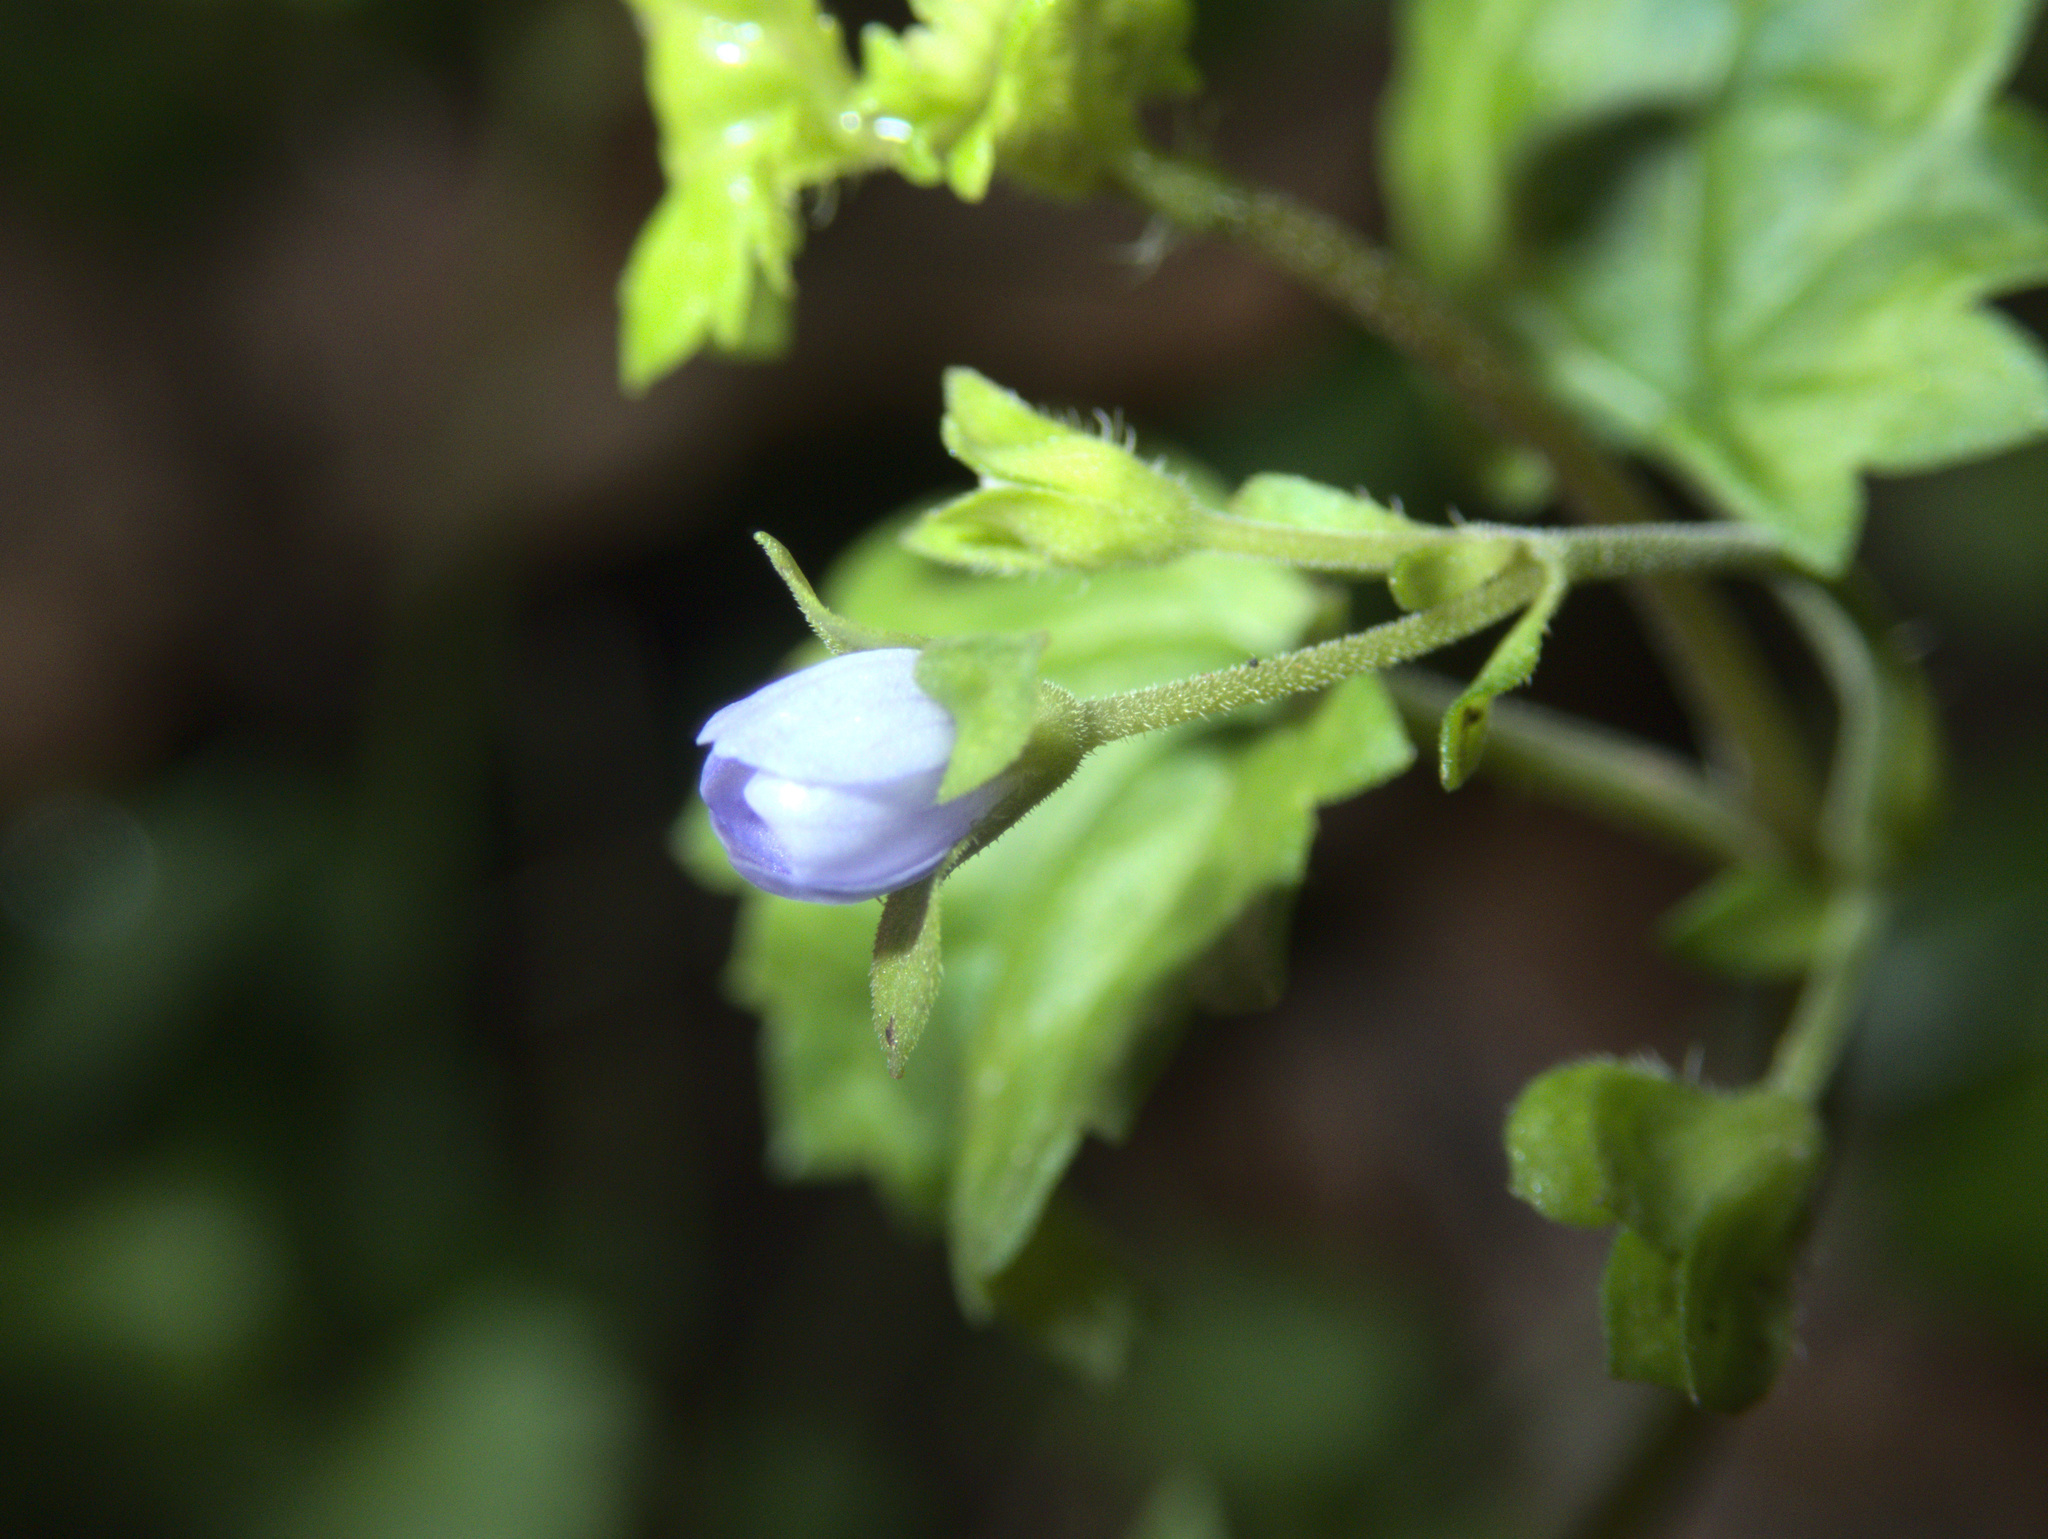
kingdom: Plantae
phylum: Tracheophyta
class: Magnoliopsida
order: Lamiales
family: Plantaginaceae
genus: Veronica
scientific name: Veronica plebeia
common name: Speedwell
